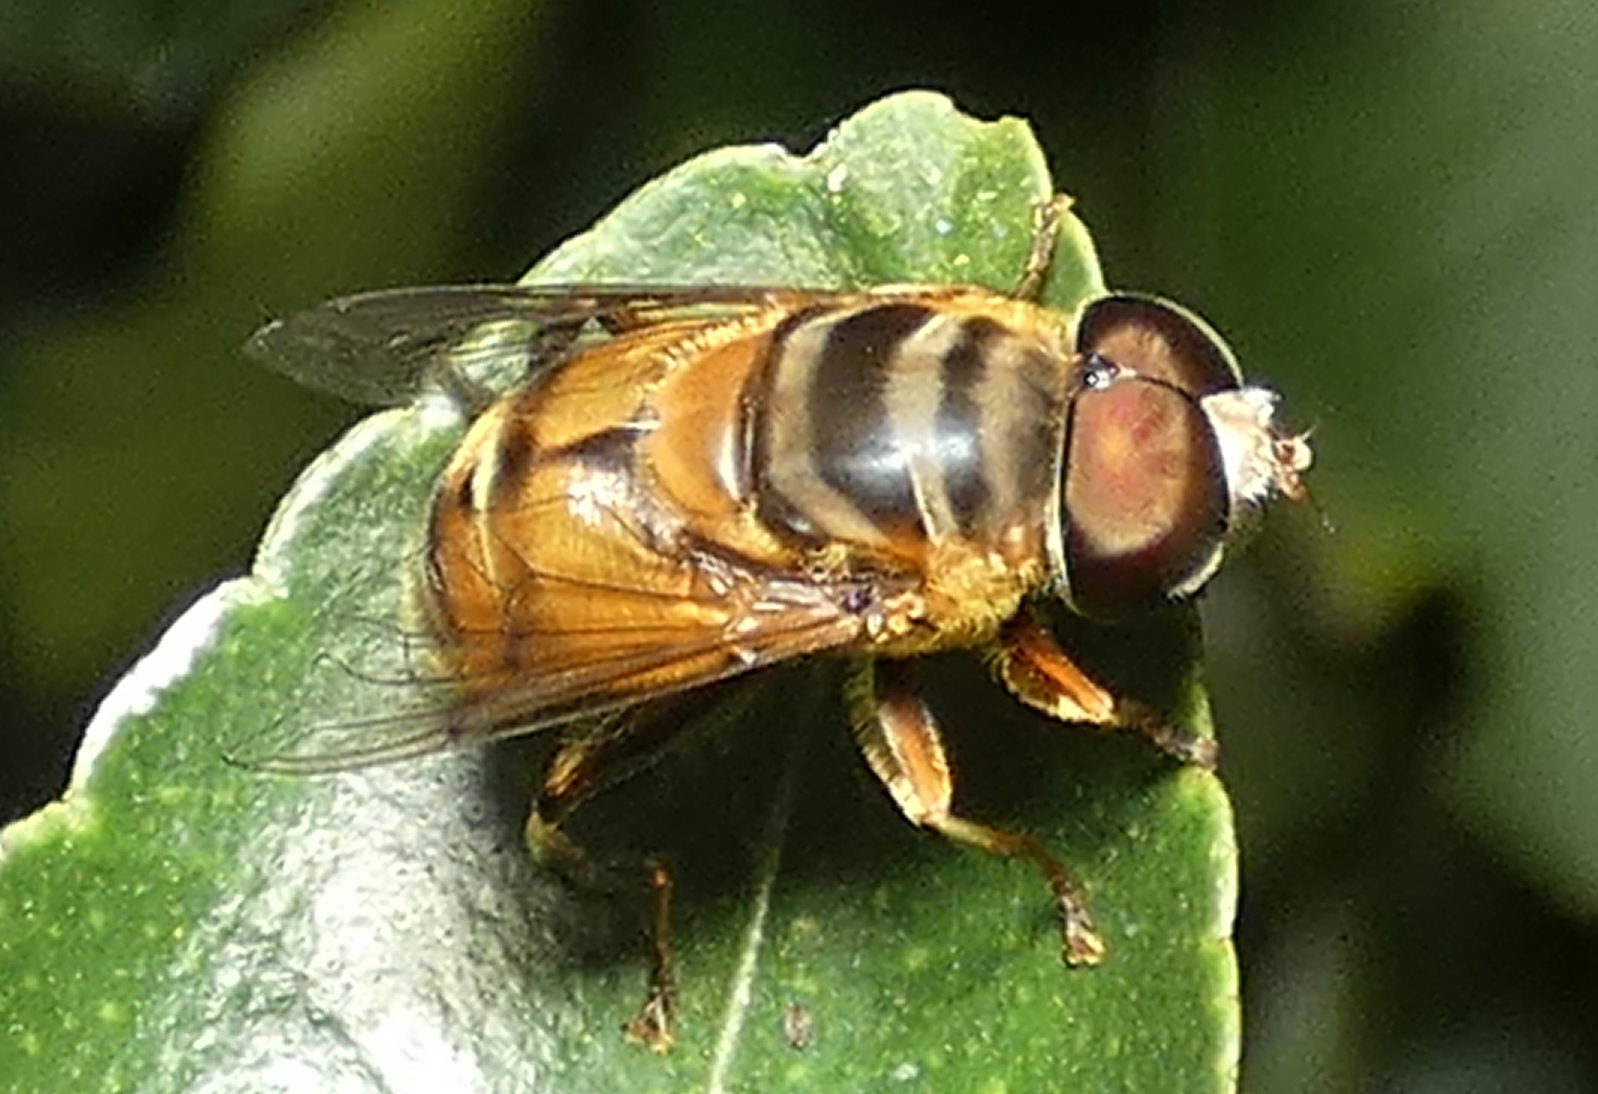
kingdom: Animalia
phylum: Arthropoda
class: Insecta
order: Diptera
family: Syrphidae
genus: Palpada
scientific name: Palpada vinetorum
